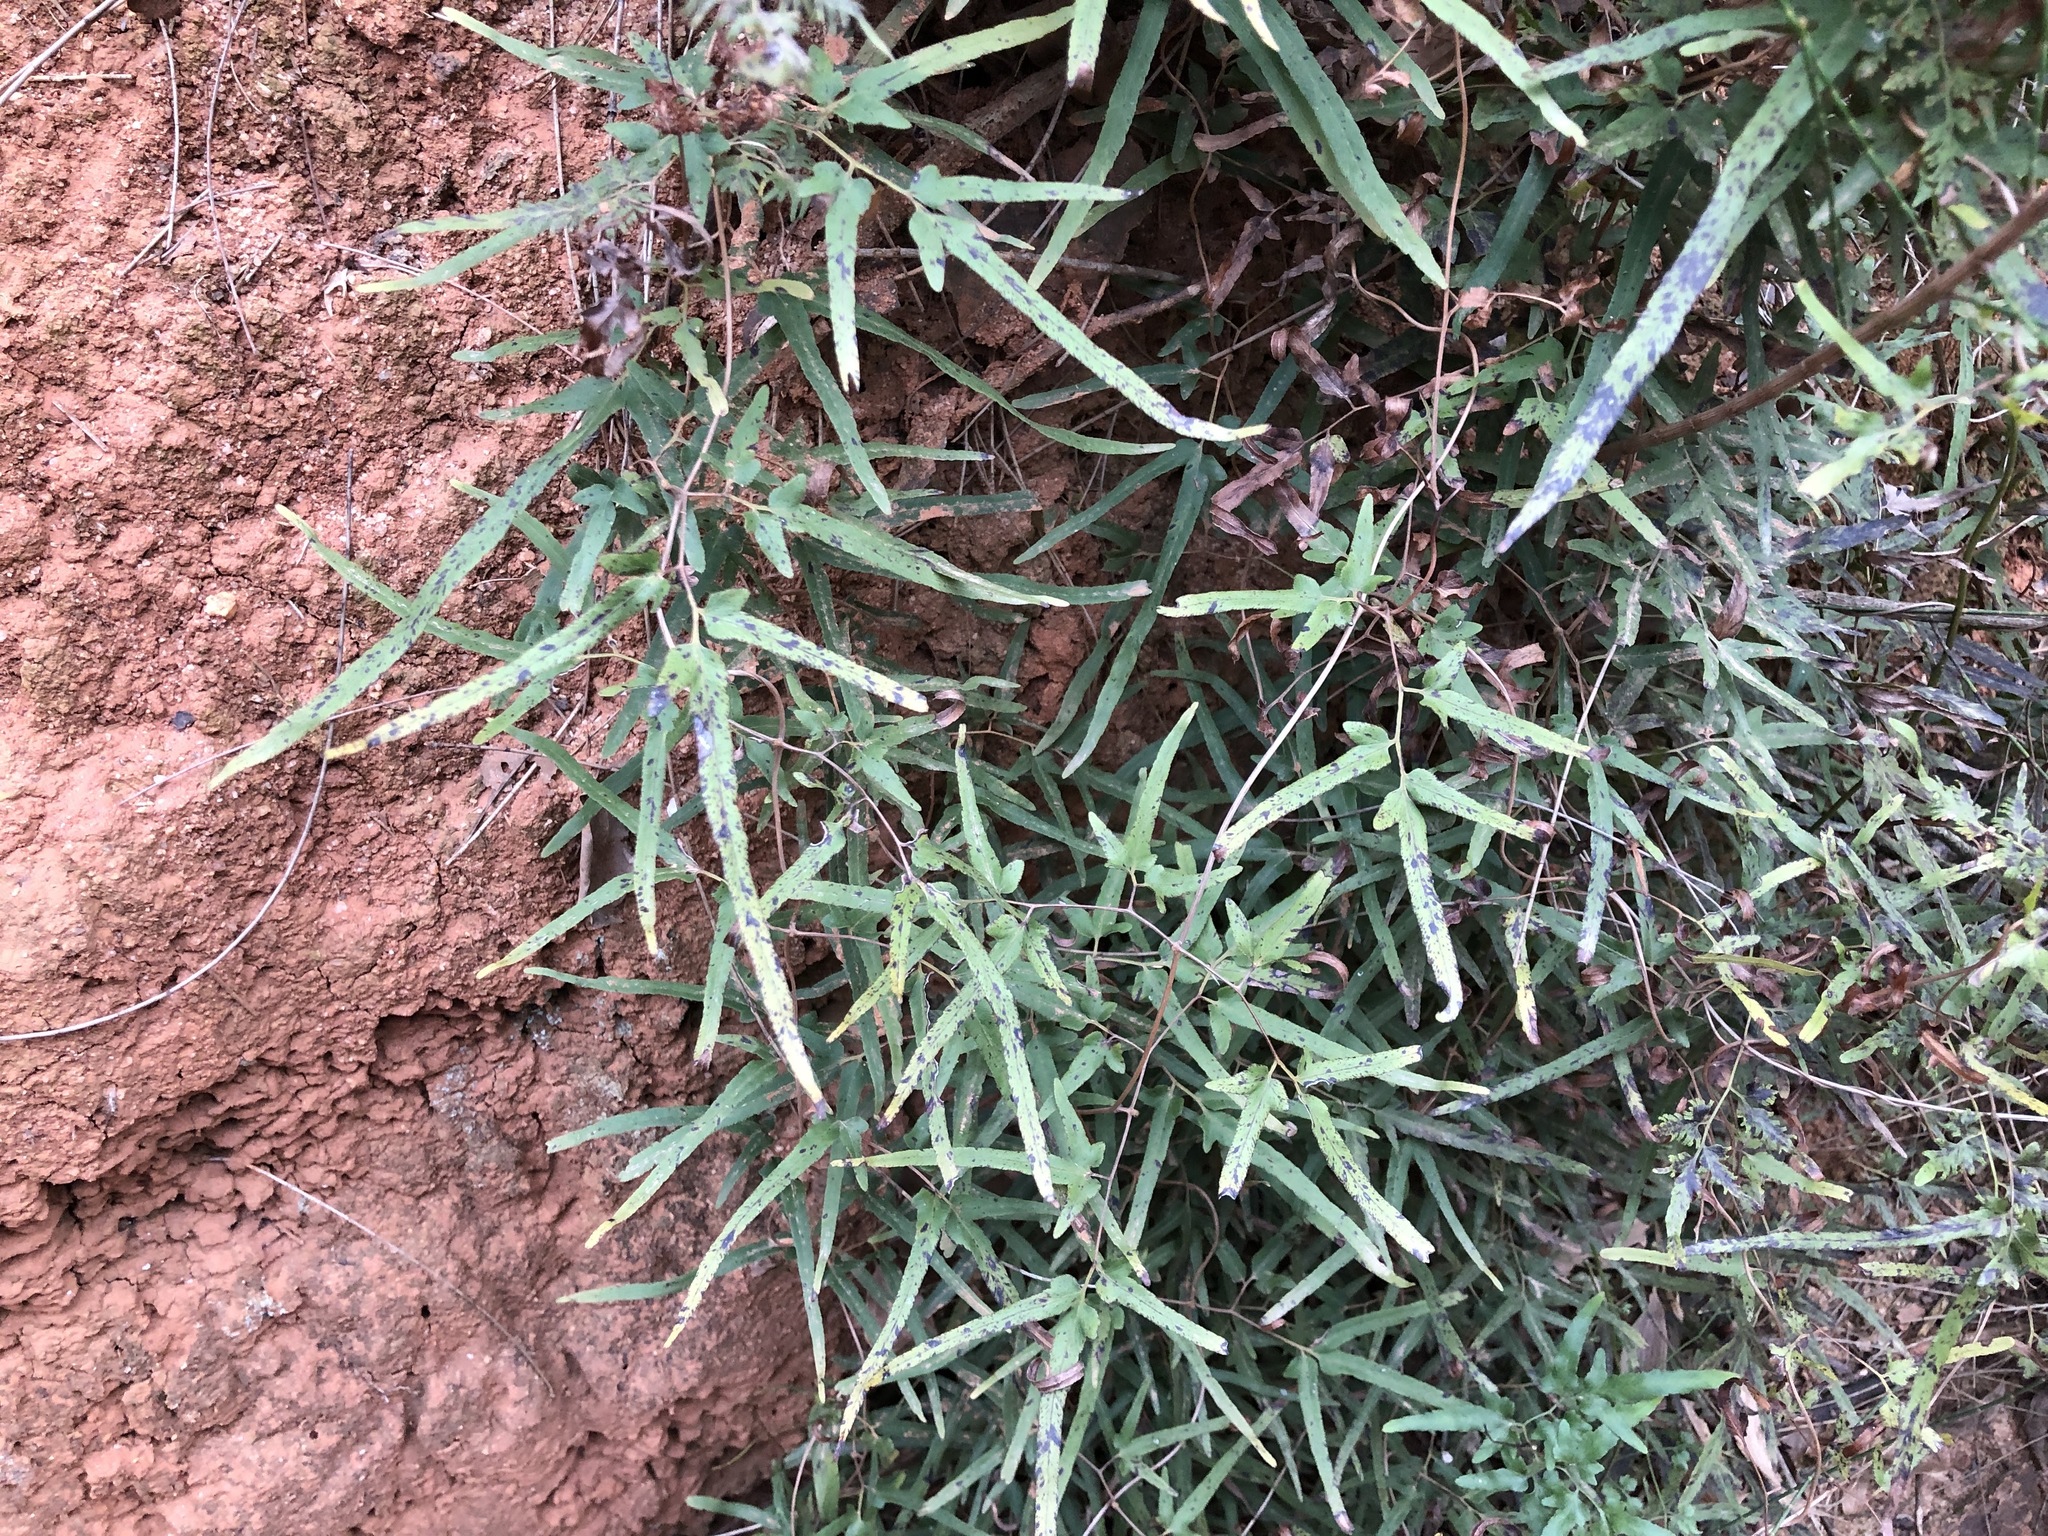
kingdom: Plantae
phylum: Tracheophyta
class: Polypodiopsida
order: Schizaeales
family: Lygodiaceae
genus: Lygodium
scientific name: Lygodium japonicum
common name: Japanese climbing fern
